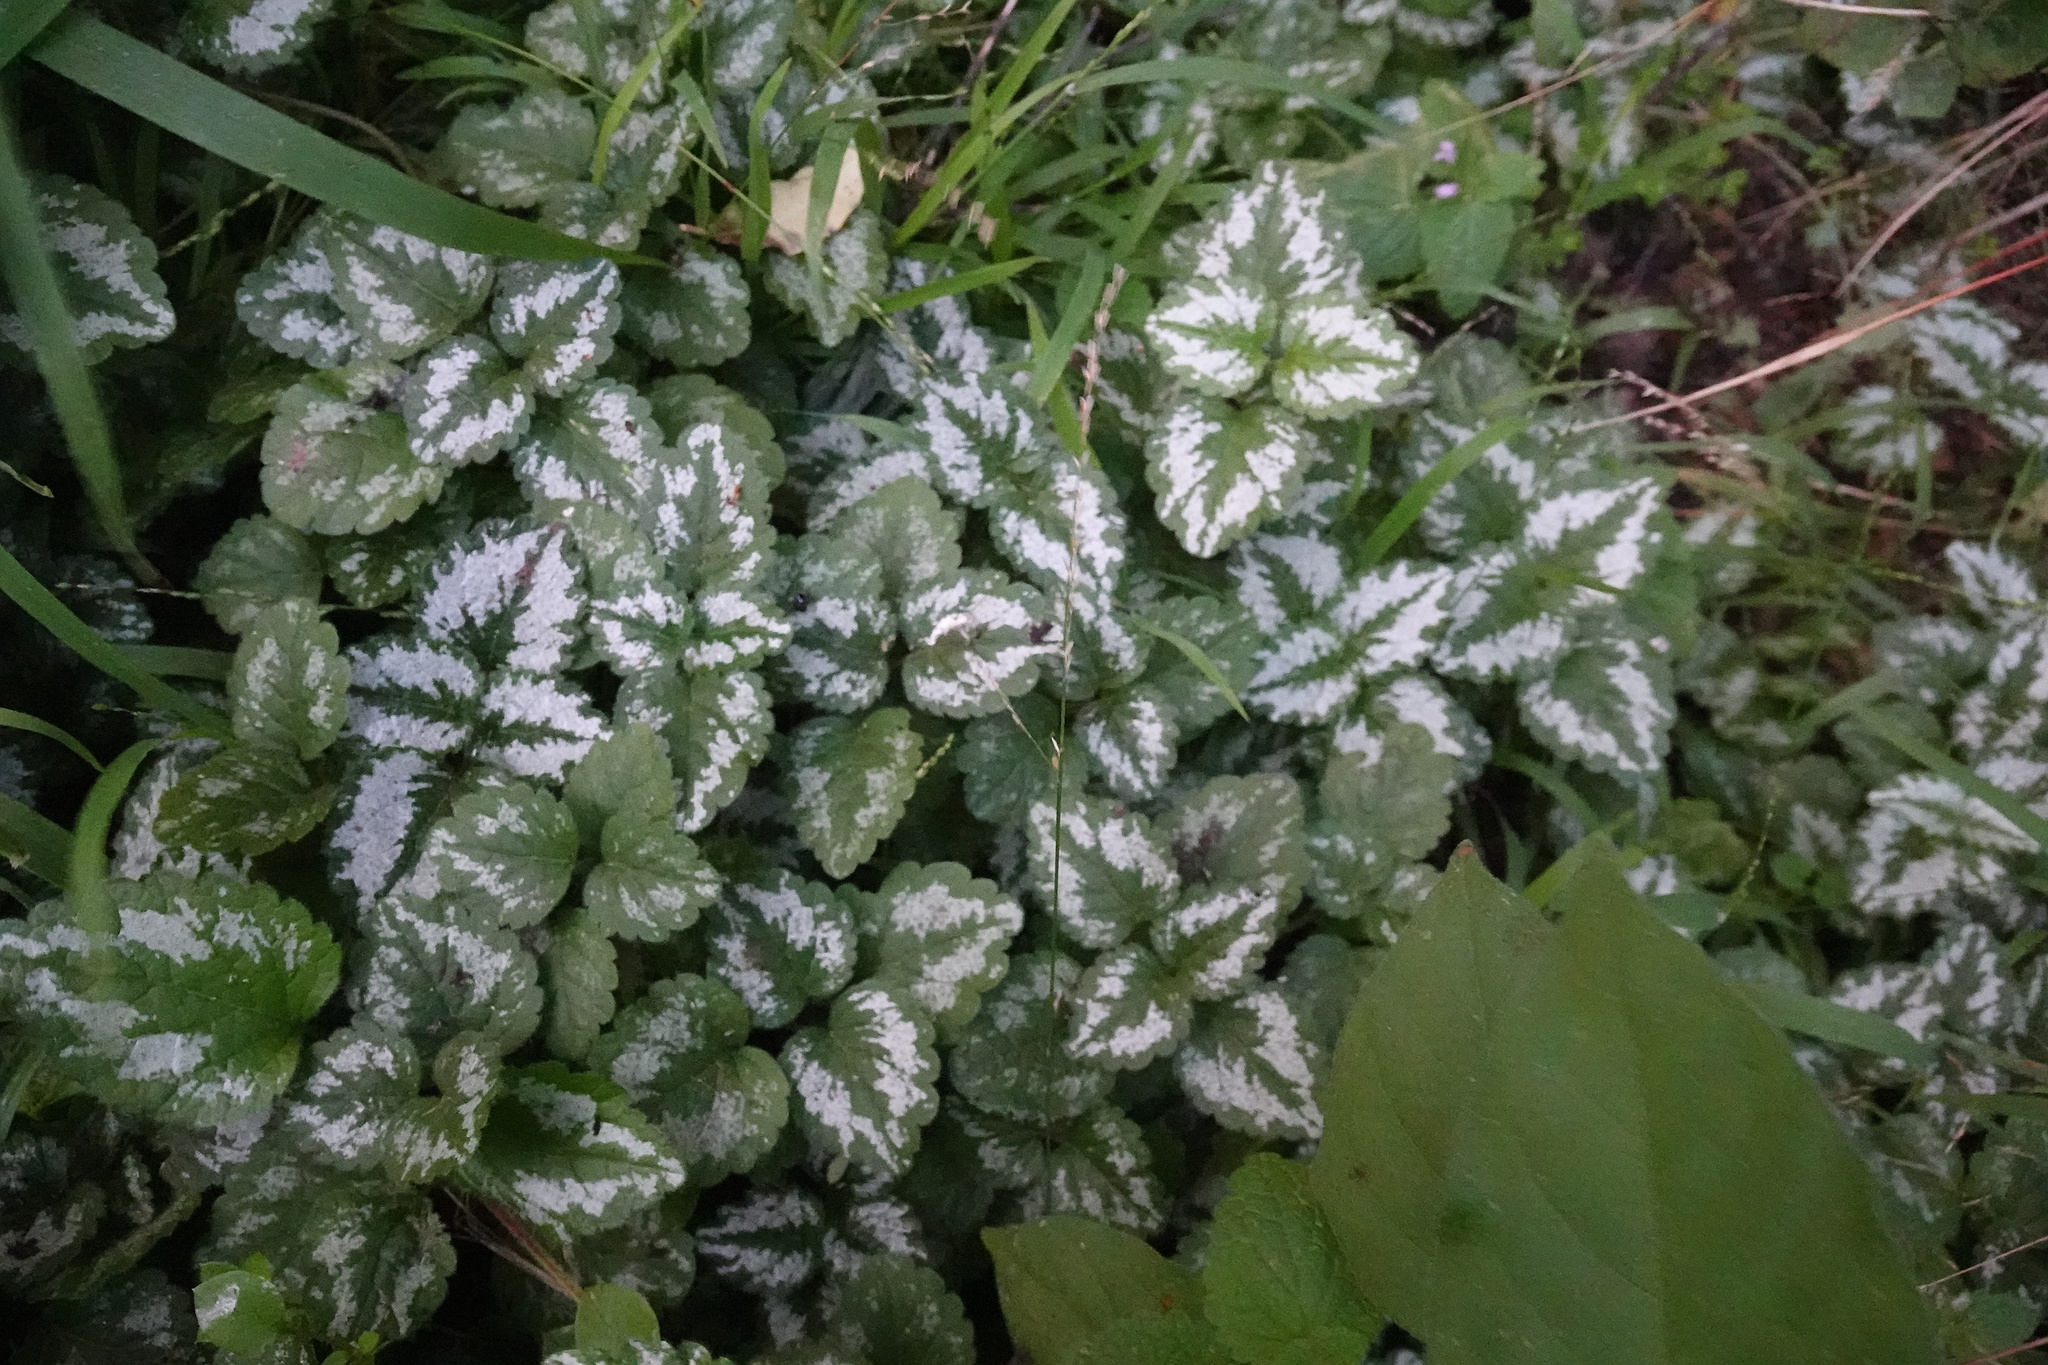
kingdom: Plantae
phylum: Tracheophyta
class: Magnoliopsida
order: Lamiales
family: Lamiaceae
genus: Lamium
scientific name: Lamium galeobdolon
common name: Yellow archangel
